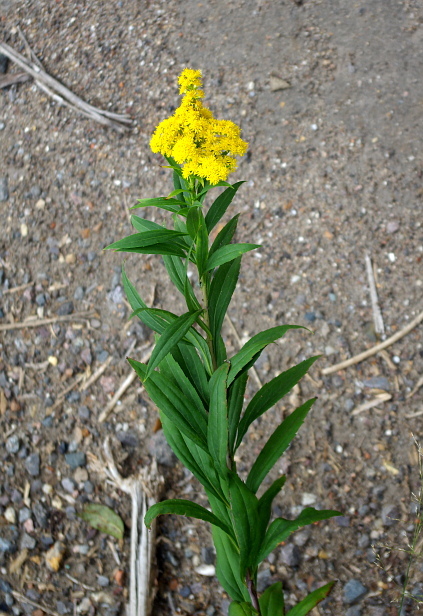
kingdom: Plantae
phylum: Tracheophyta
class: Magnoliopsida
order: Asterales
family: Asteraceae
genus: Solidago
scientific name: Solidago gigantea
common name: Giant goldenrod
